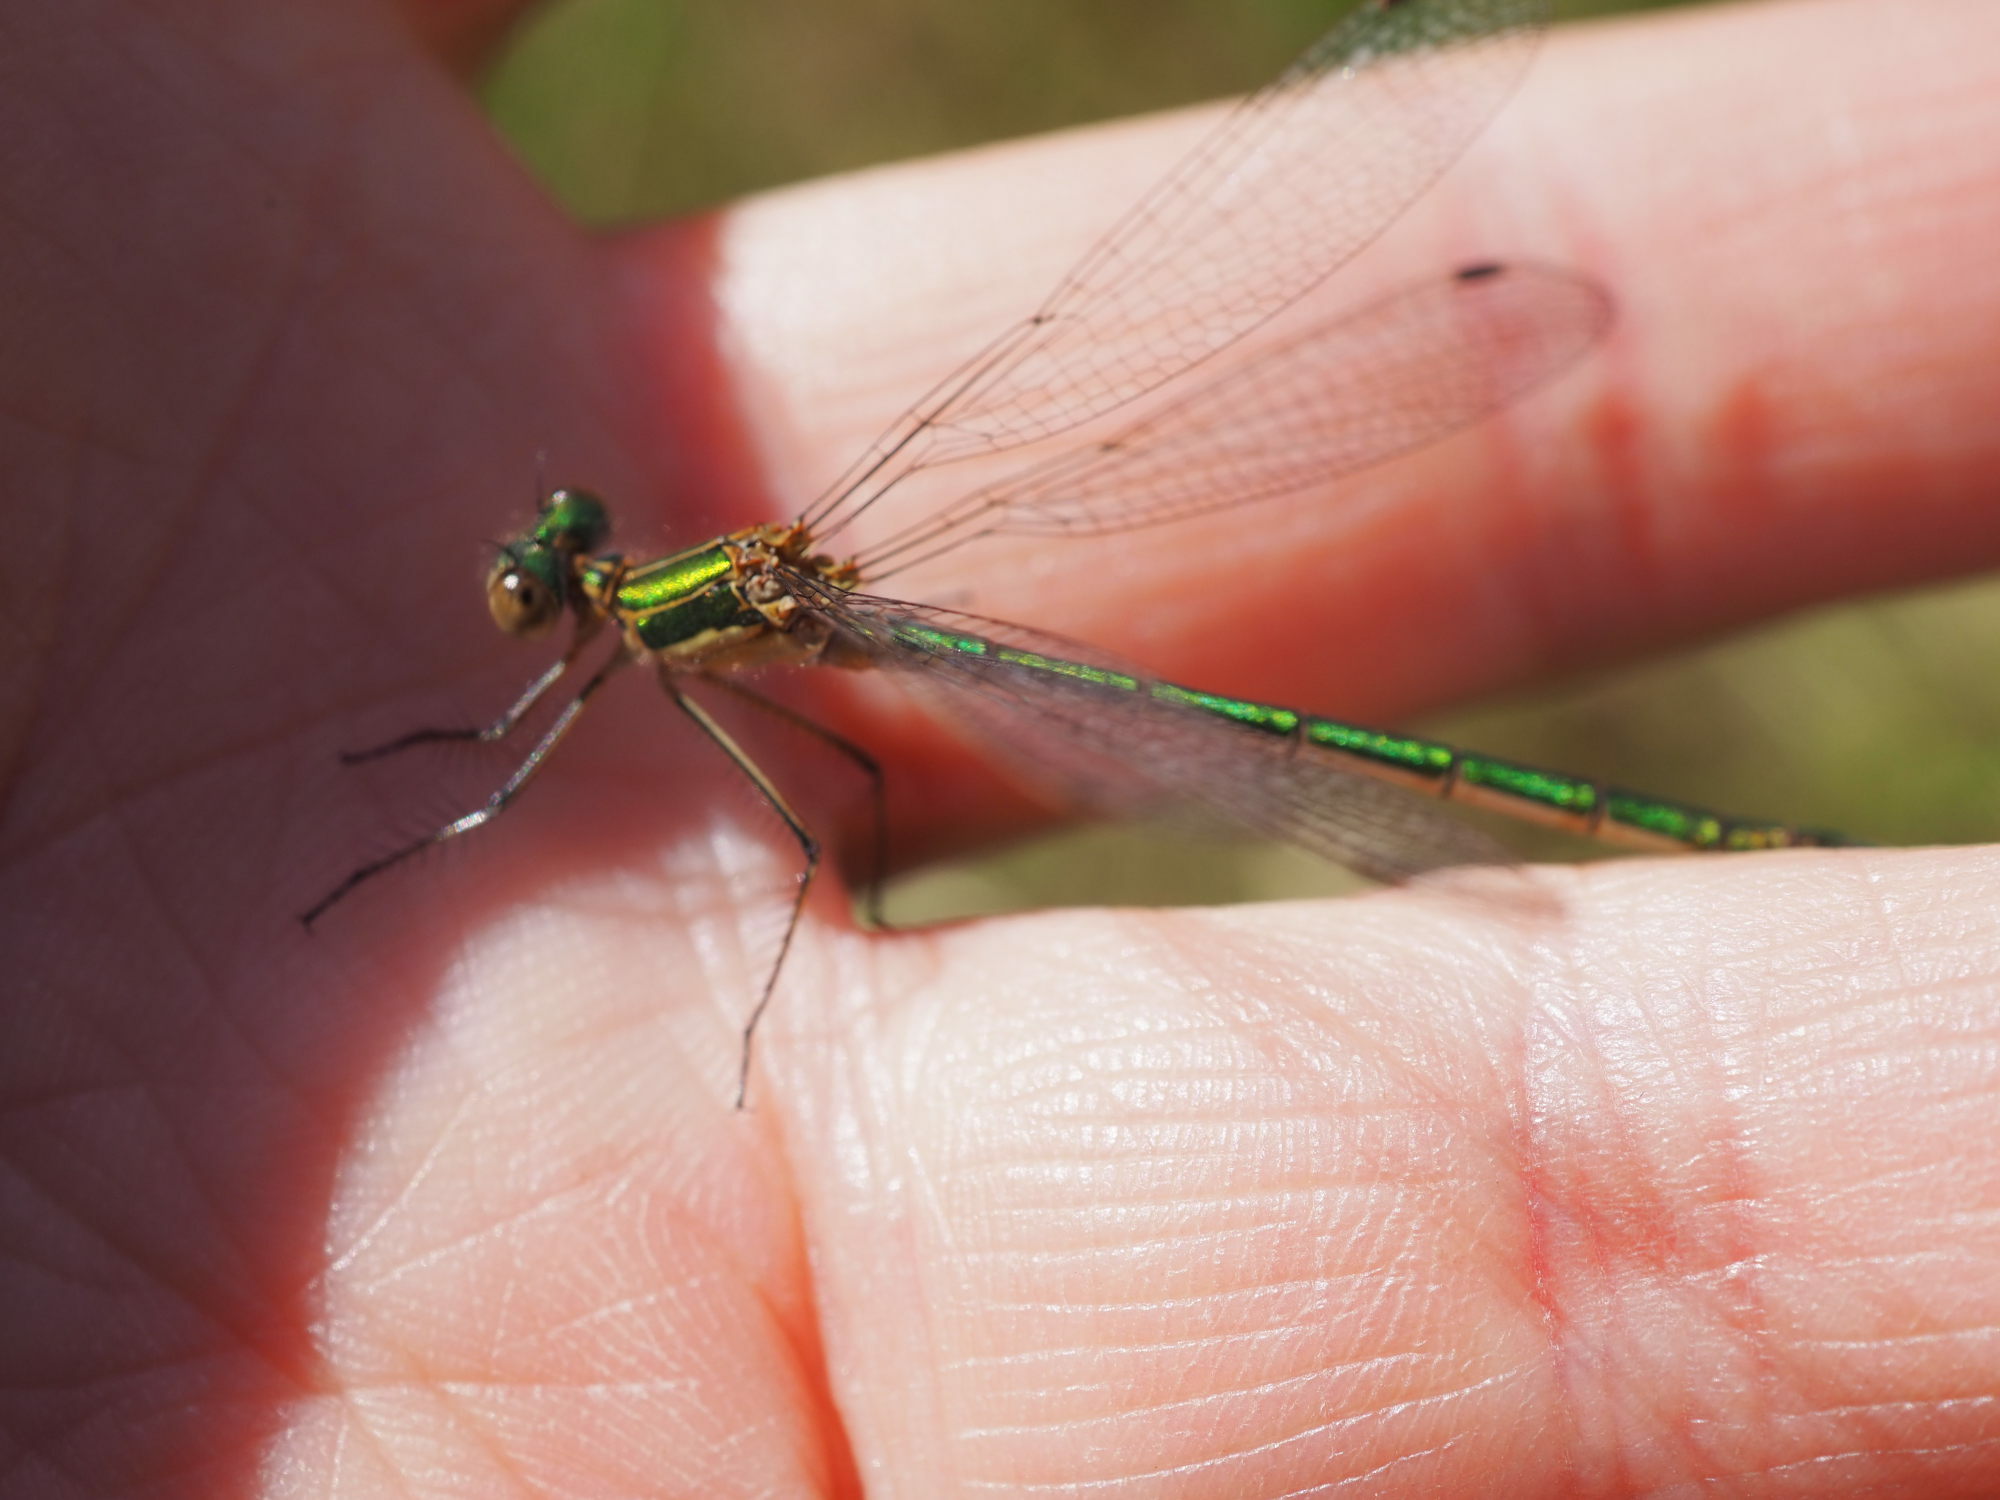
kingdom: Animalia
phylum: Arthropoda
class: Insecta
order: Odonata
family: Lestidae
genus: Lestes
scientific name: Lestes sponsa
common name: Common spreadwing
